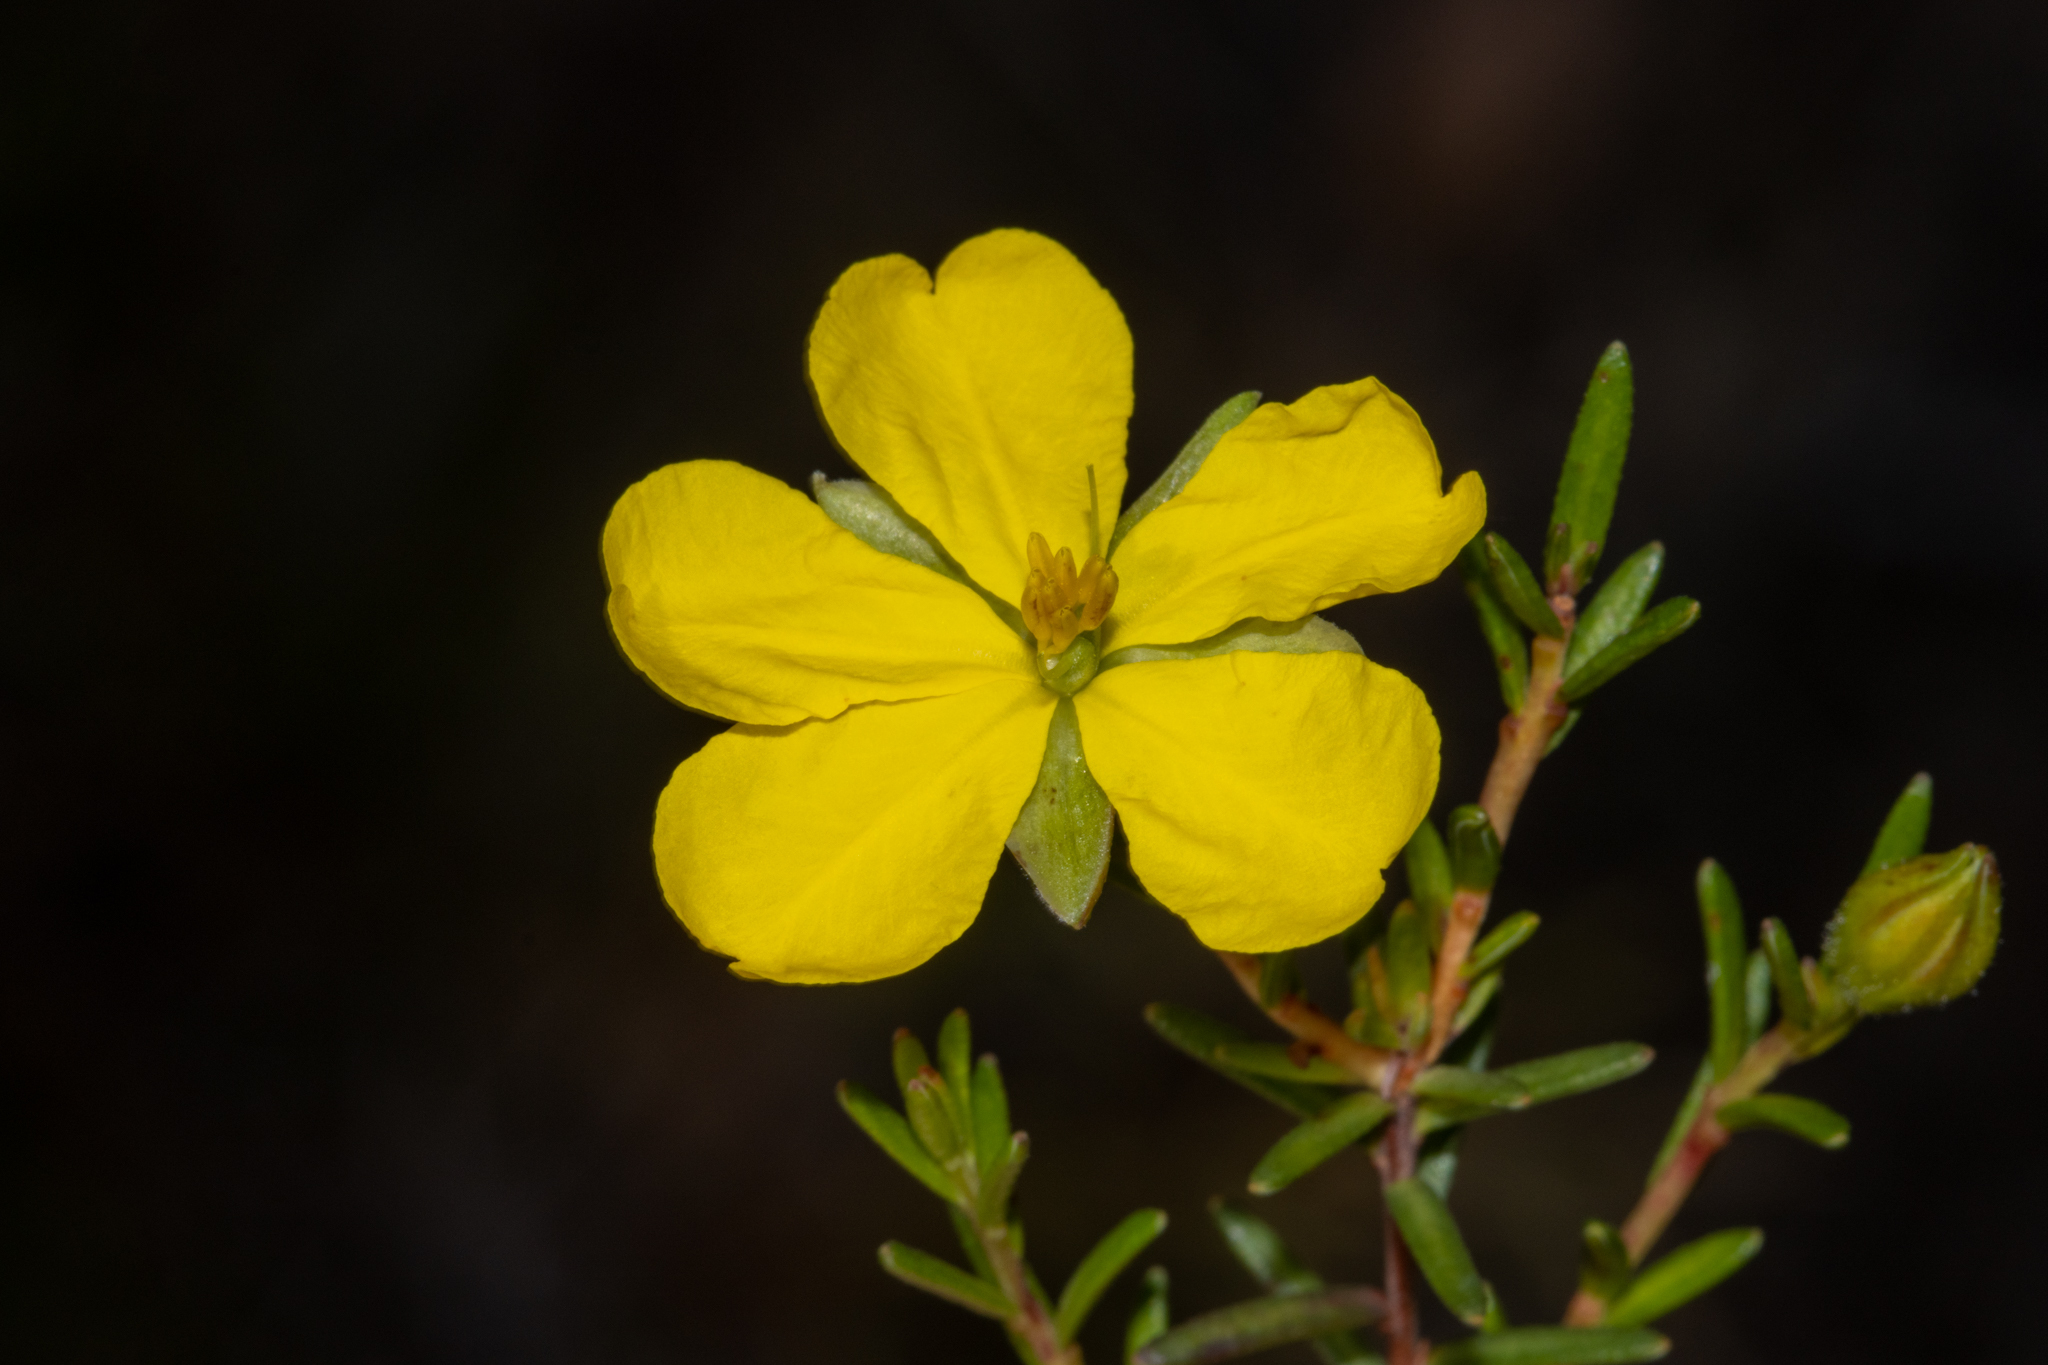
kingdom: Plantae
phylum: Tracheophyta
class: Magnoliopsida
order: Dilleniales
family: Dilleniaceae
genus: Hibbertia
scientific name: Hibbertia devitata
